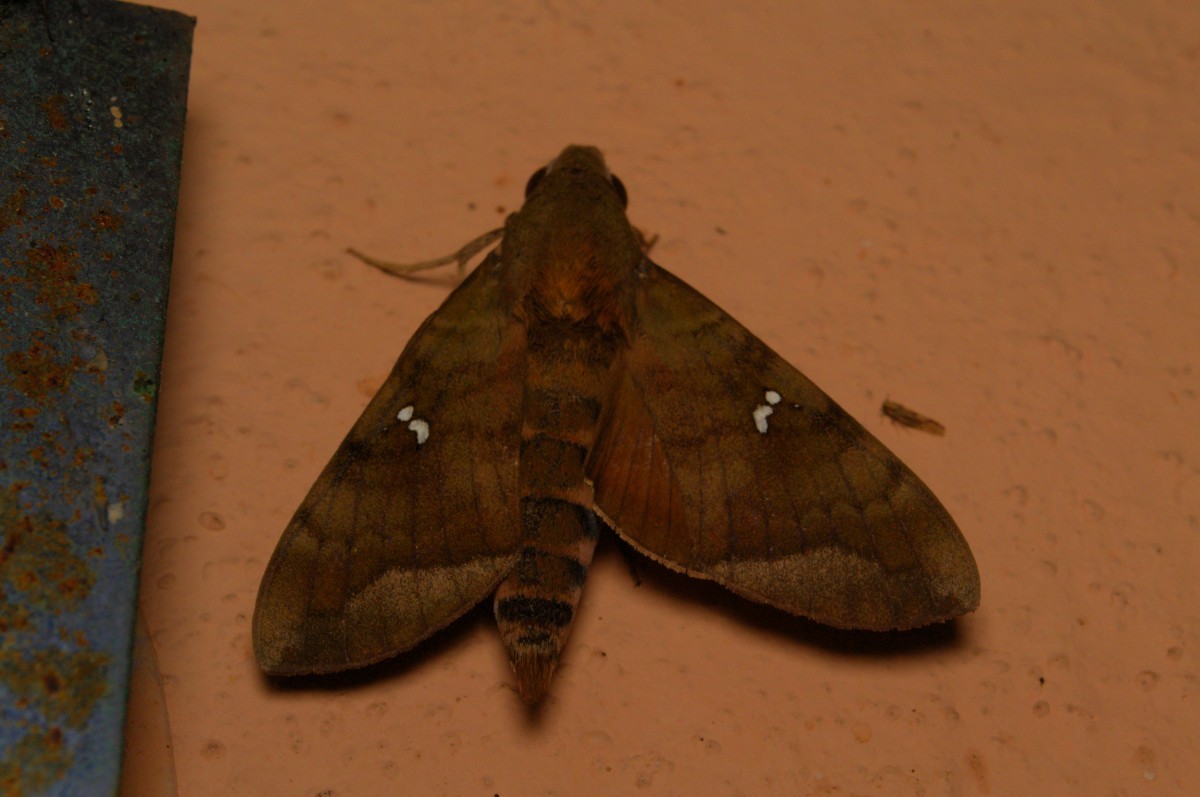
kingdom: Animalia
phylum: Arthropoda
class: Insecta
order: Lepidoptera
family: Sphingidae
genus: Nephele
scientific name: Nephele hespera
